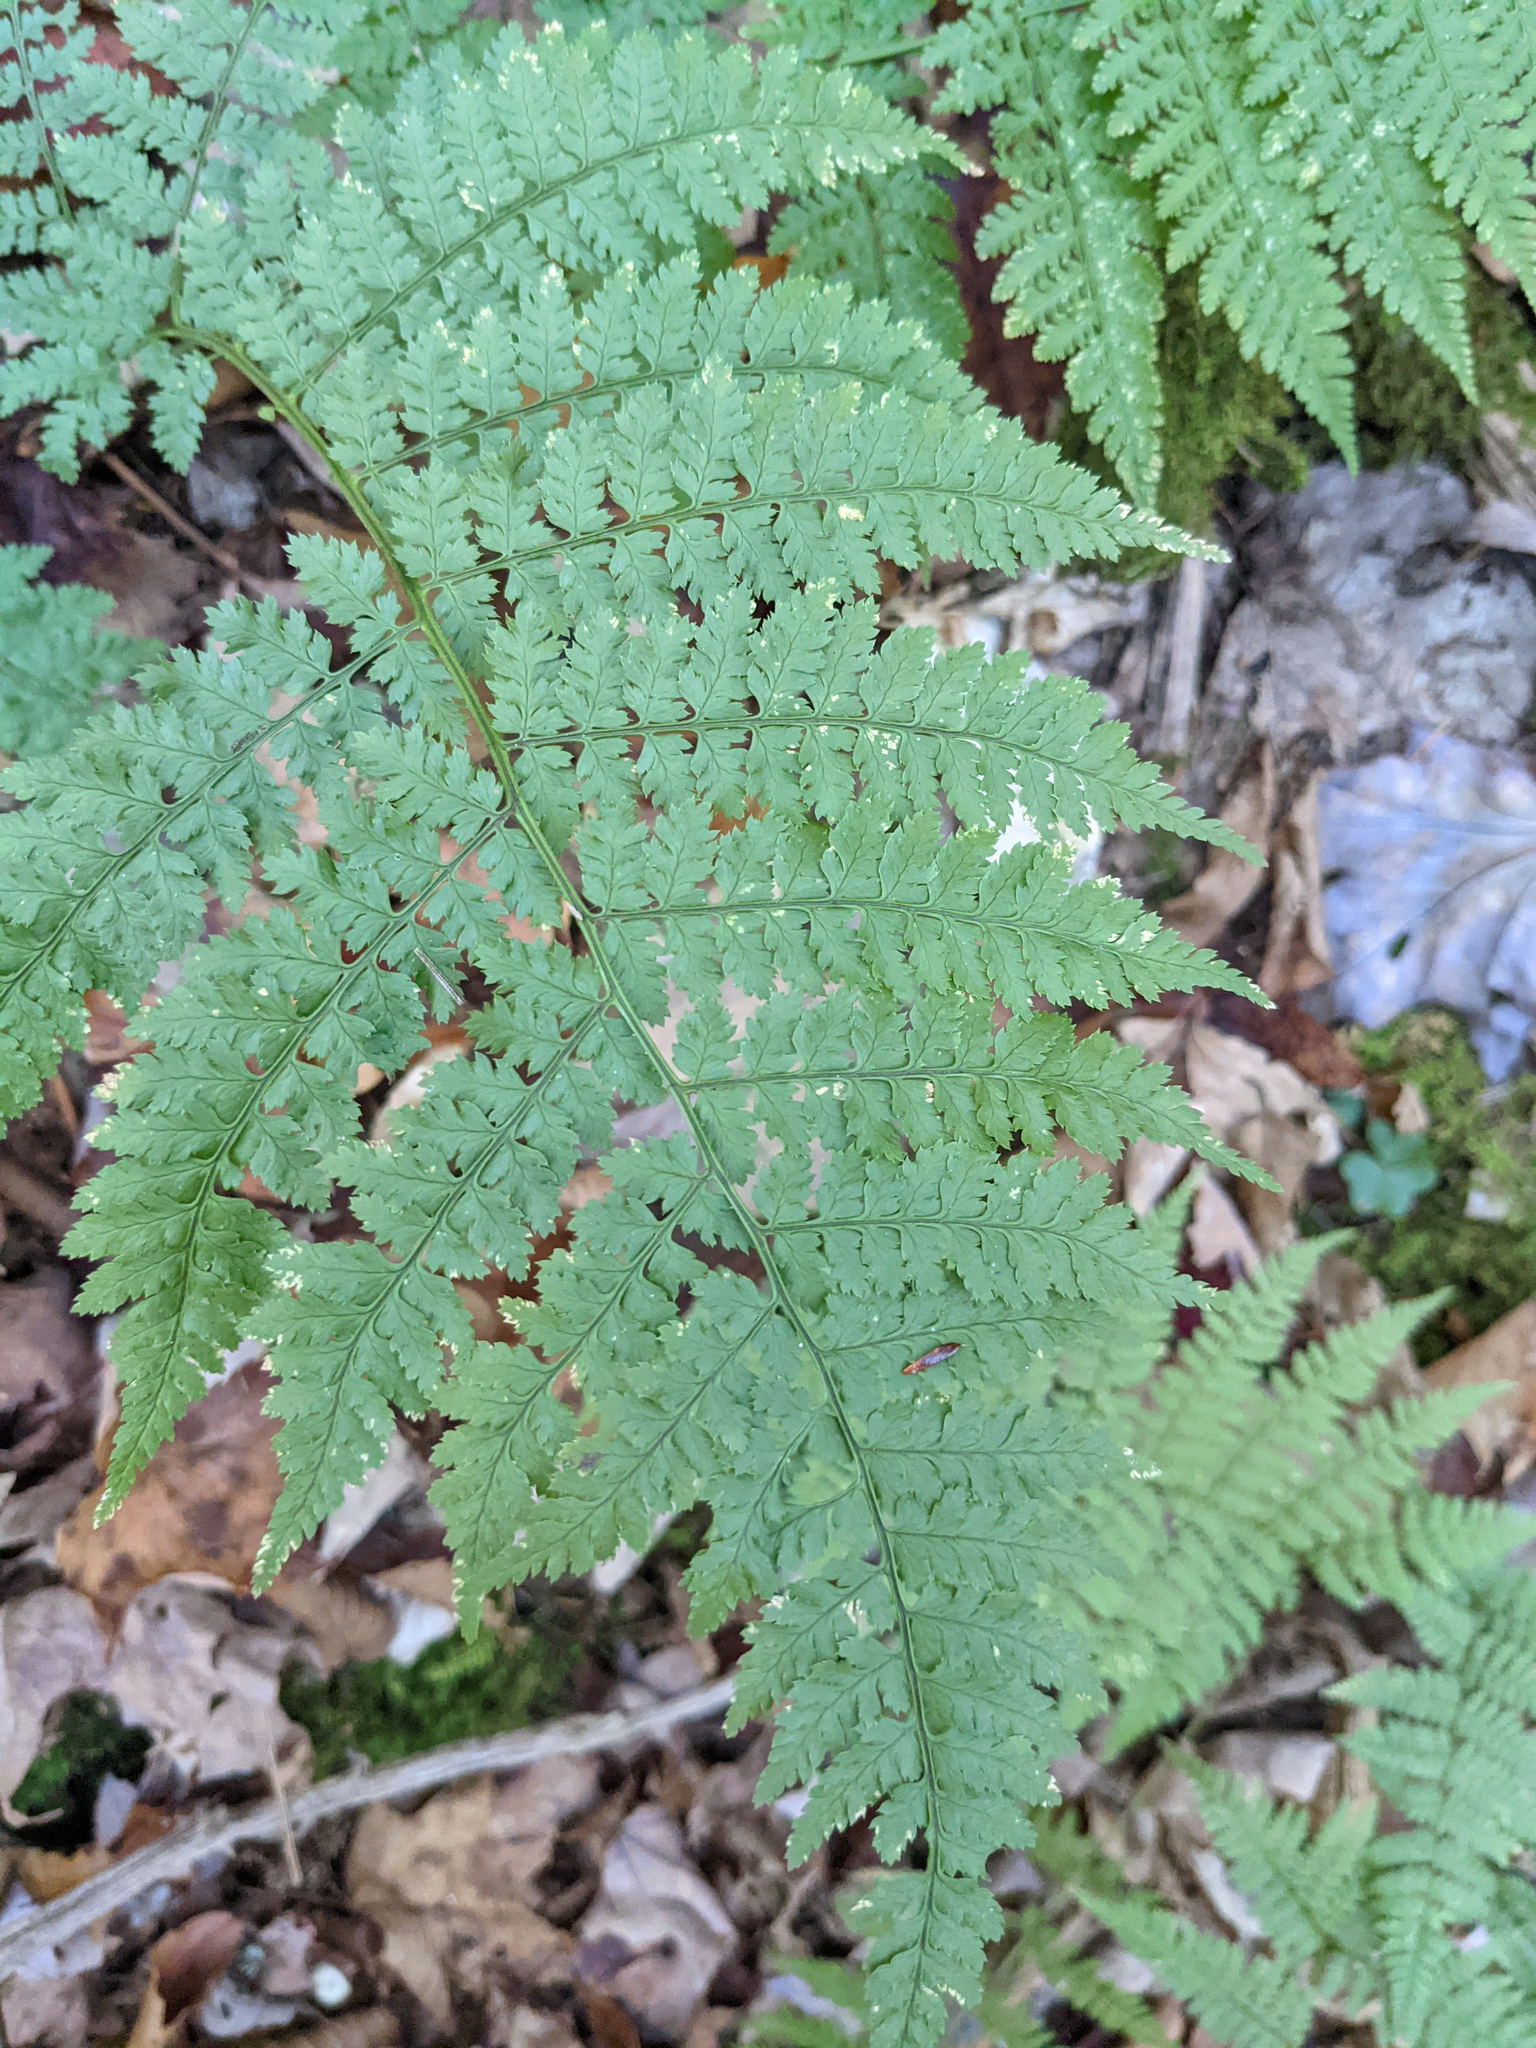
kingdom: Plantae
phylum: Tracheophyta
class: Polypodiopsida
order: Polypodiales
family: Dryopteridaceae
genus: Dryopteris
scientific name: Dryopteris intermedia
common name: Evergreen wood fern
